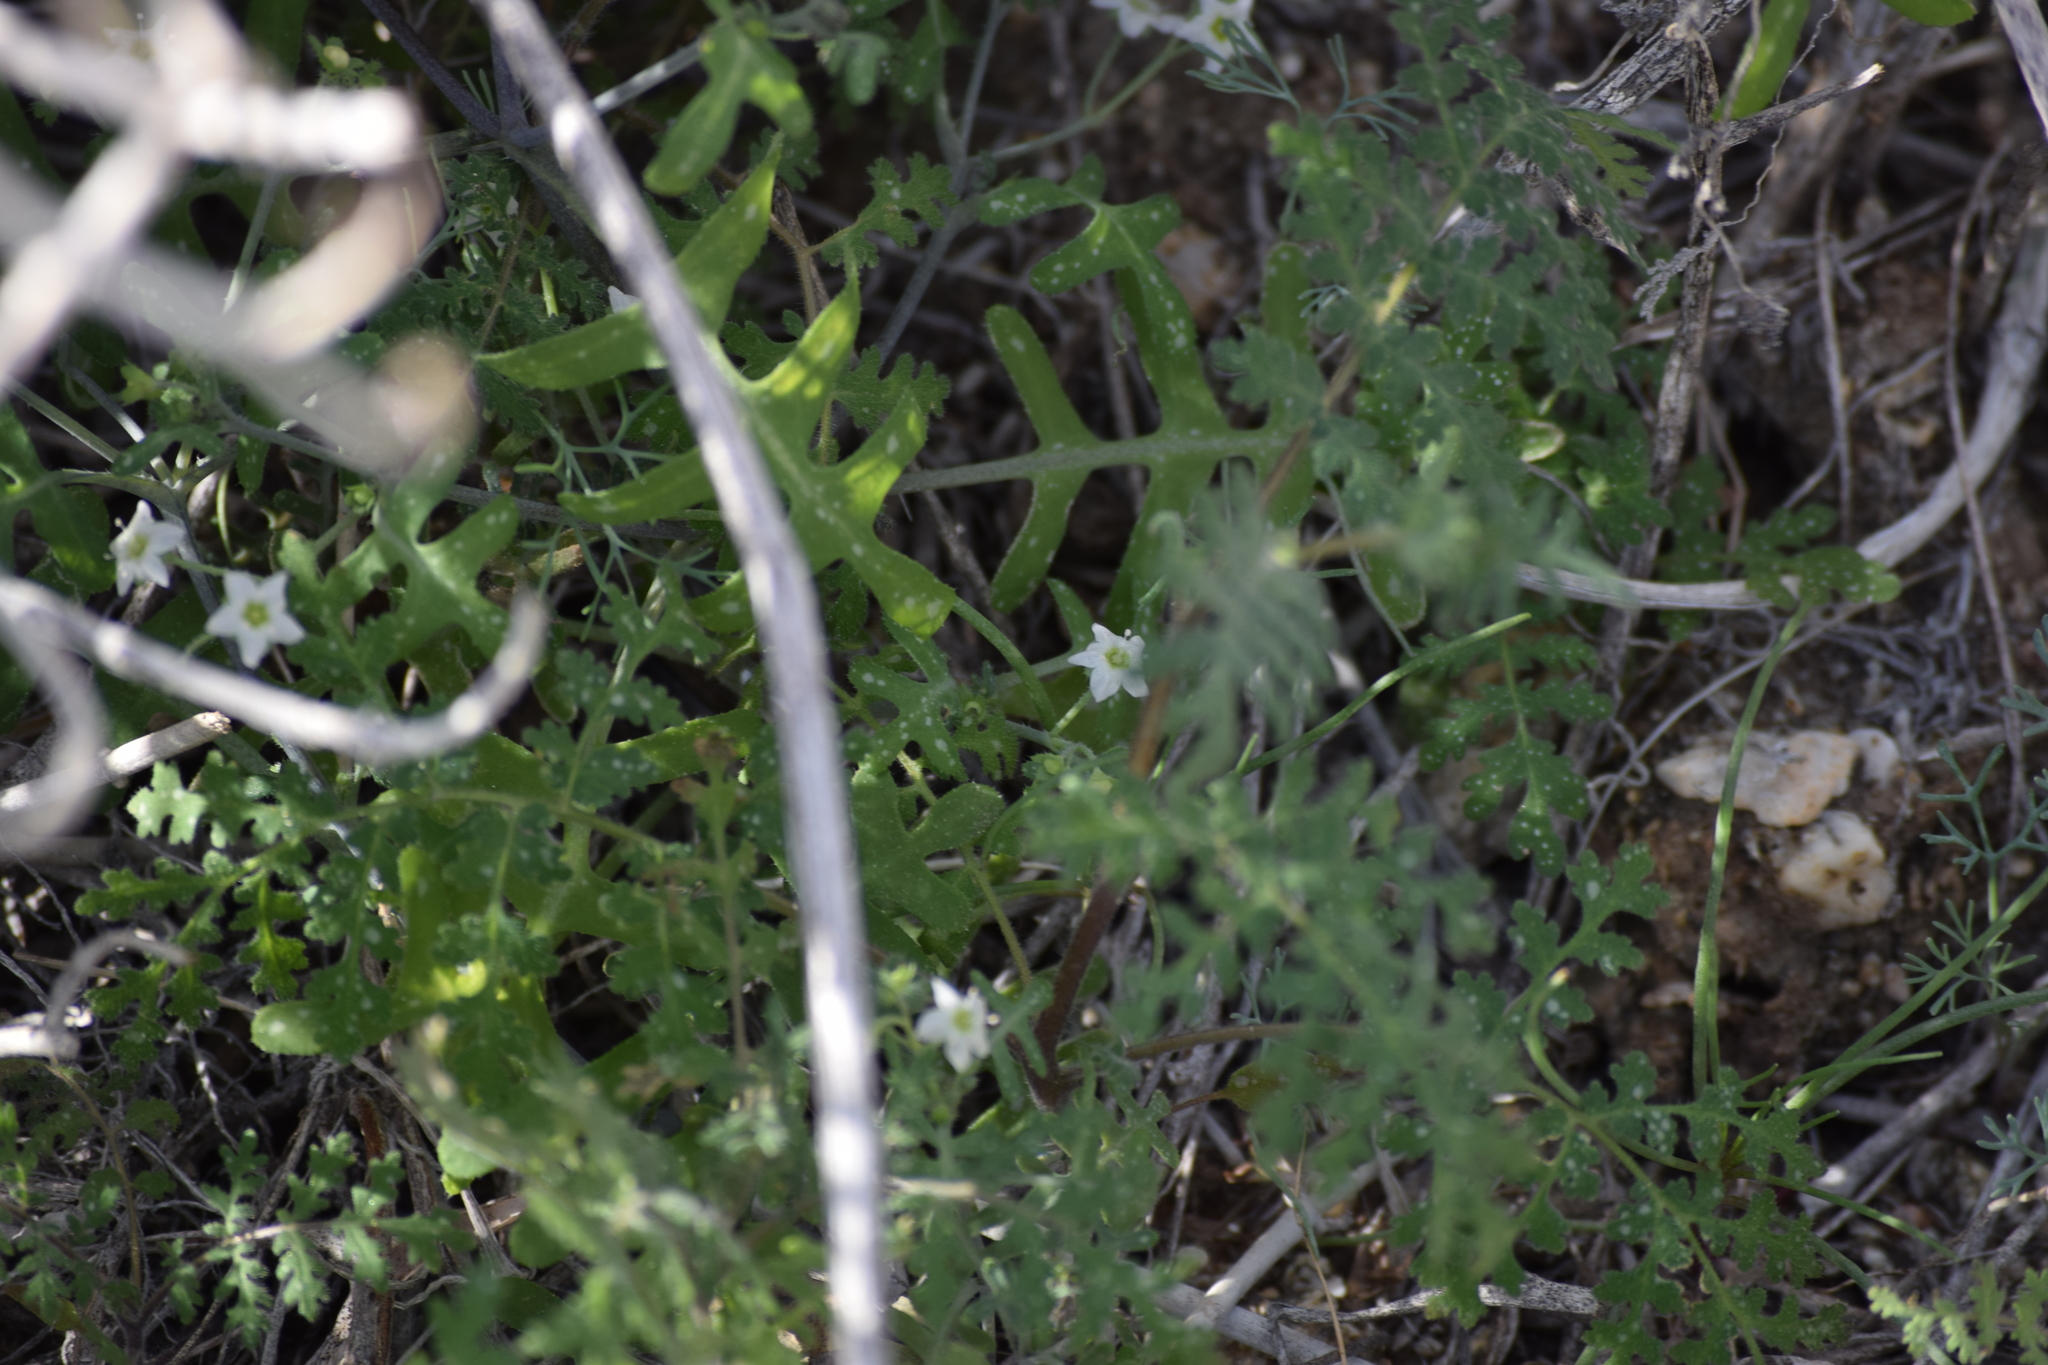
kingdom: Plantae
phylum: Tracheophyta
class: Magnoliopsida
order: Boraginales
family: Hydrophyllaceae
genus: Pholistoma
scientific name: Pholistoma membranaceum
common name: White fiesta-flower
